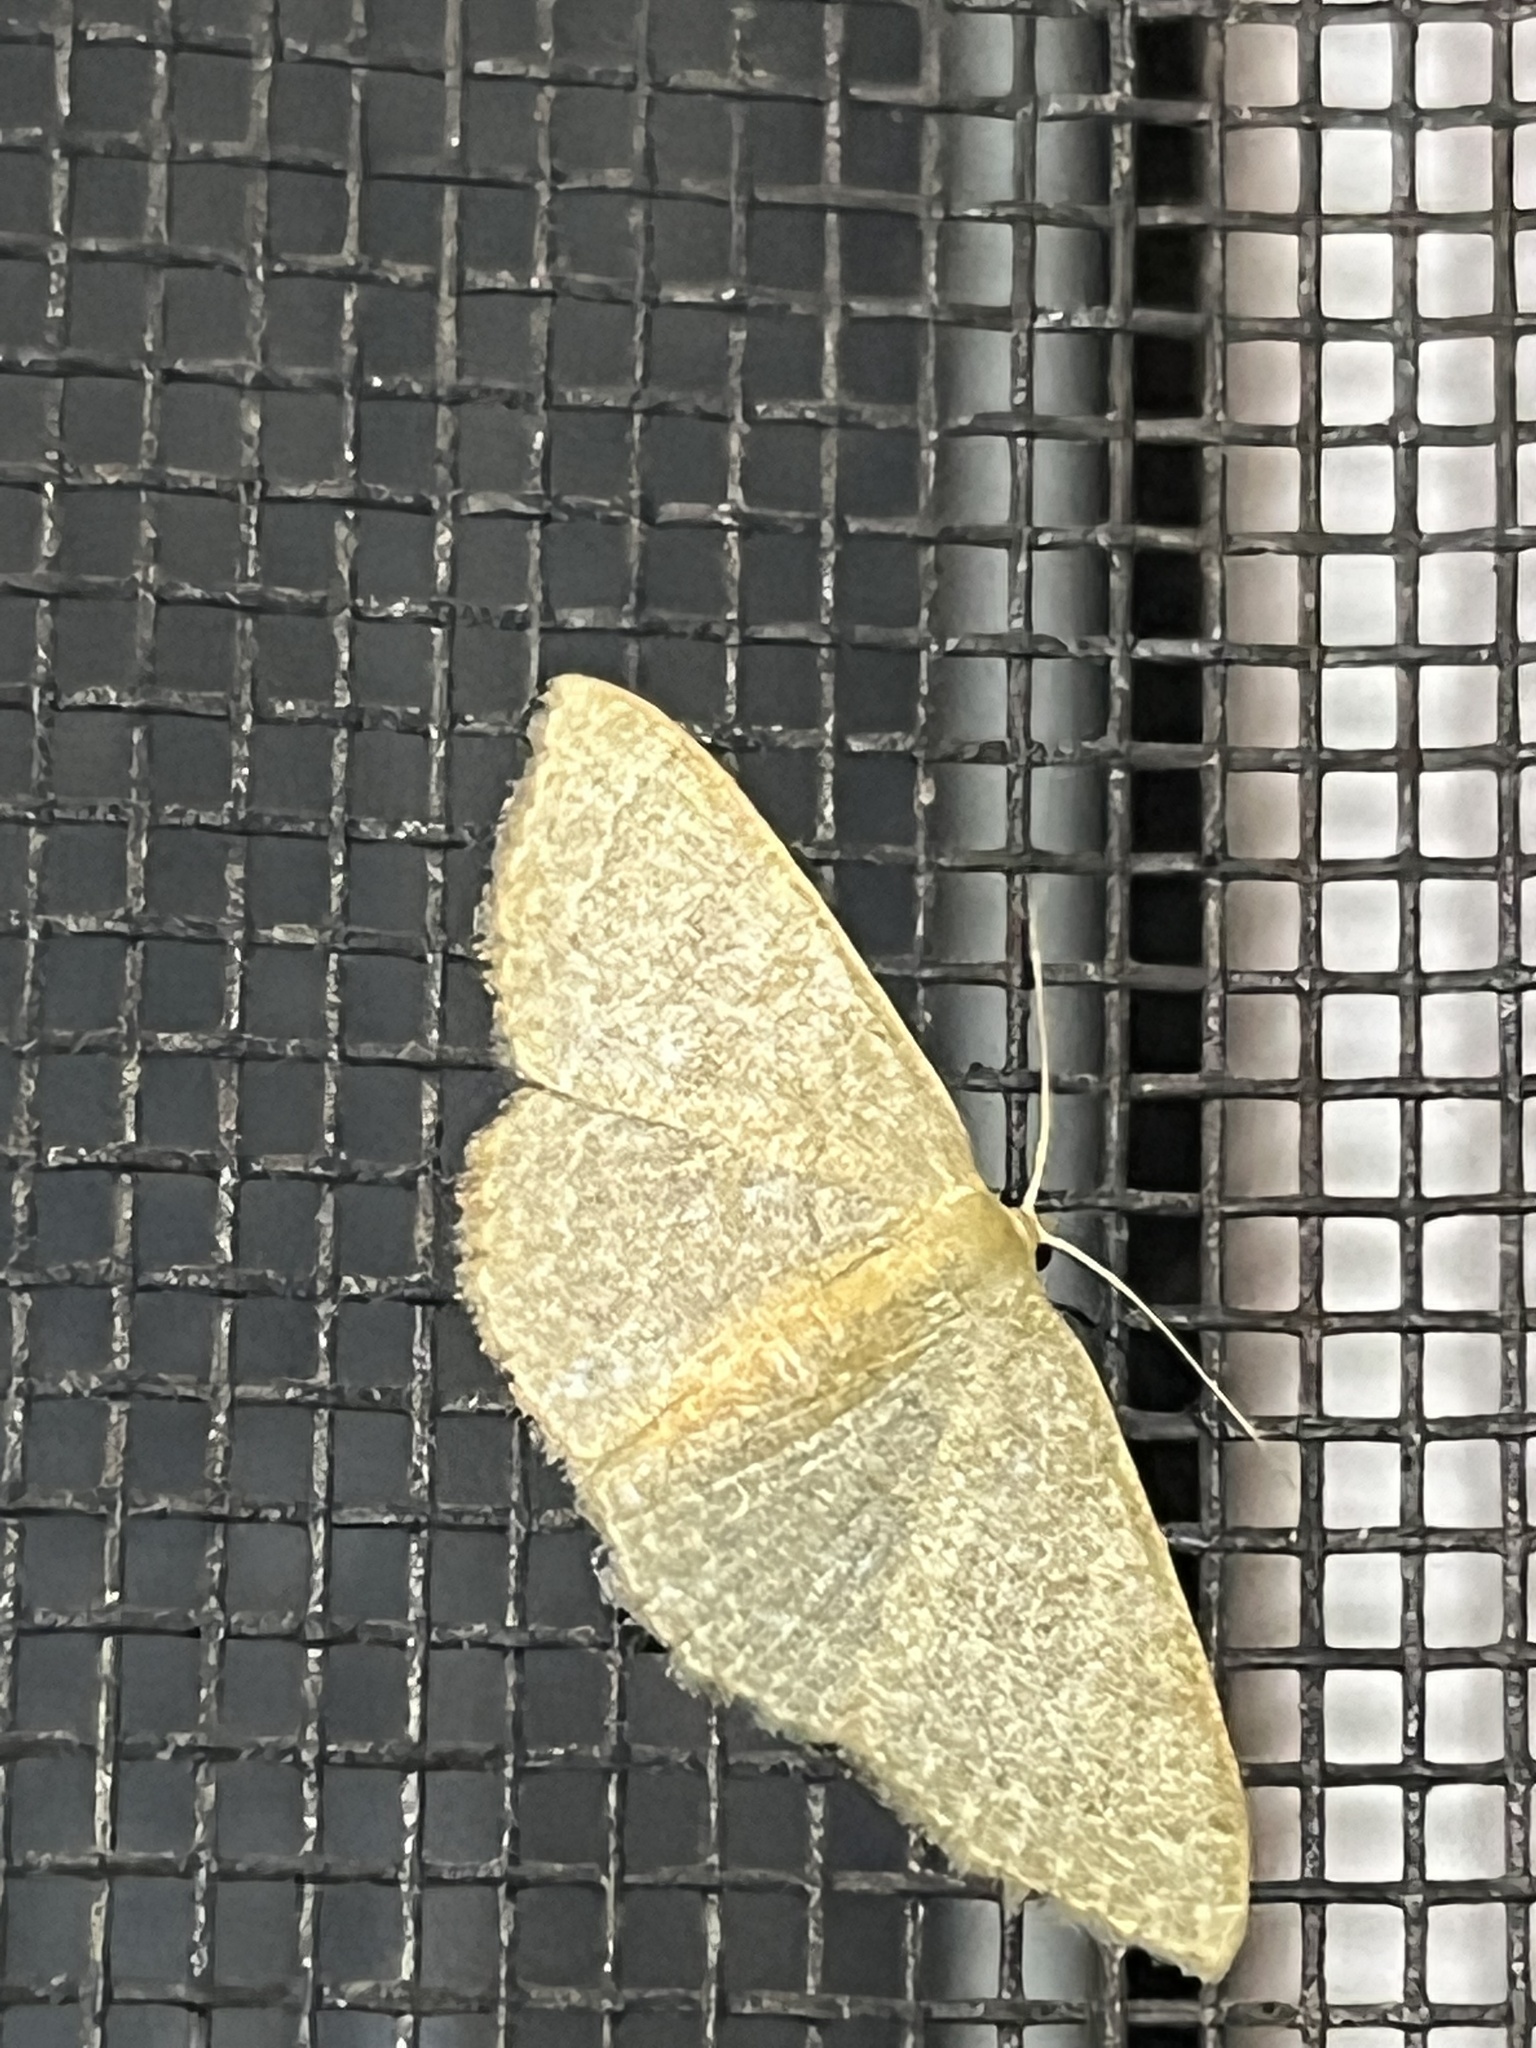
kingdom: Animalia
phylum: Arthropoda
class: Insecta
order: Lepidoptera
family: Geometridae
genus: Pleuroprucha
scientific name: Pleuroprucha insulsaria
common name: Common tan wave
